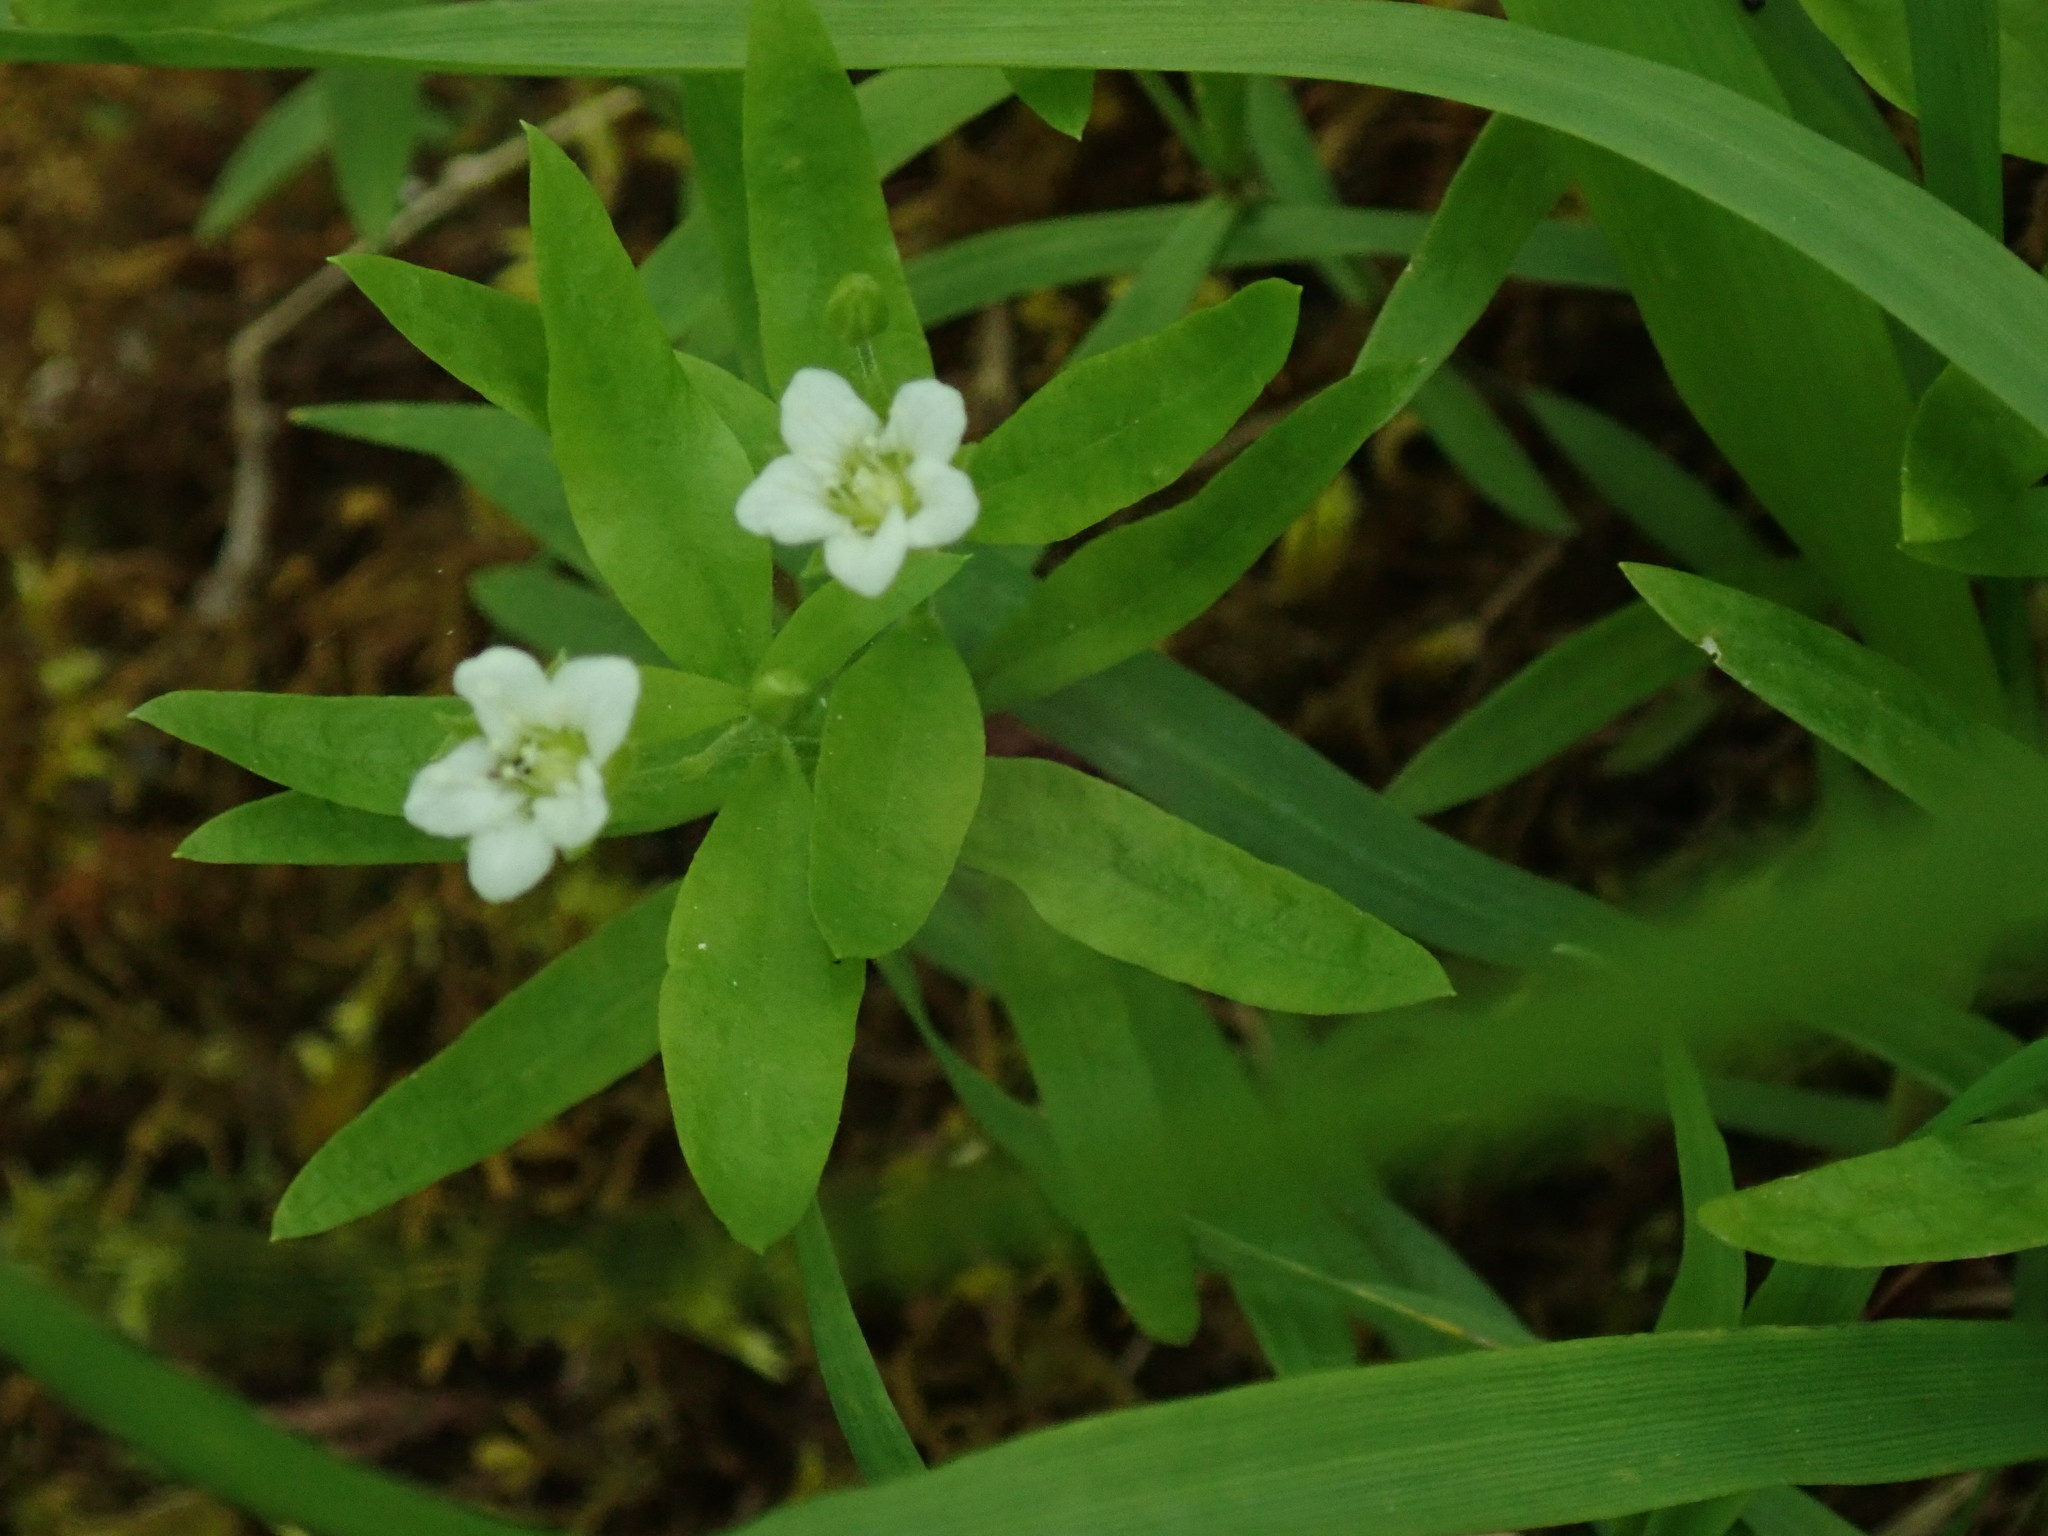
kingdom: Plantae
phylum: Tracheophyta
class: Magnoliopsida
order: Caryophyllales
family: Caryophyllaceae
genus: Moehringia
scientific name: Moehringia macrophylla
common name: Big-leaf sandwort
